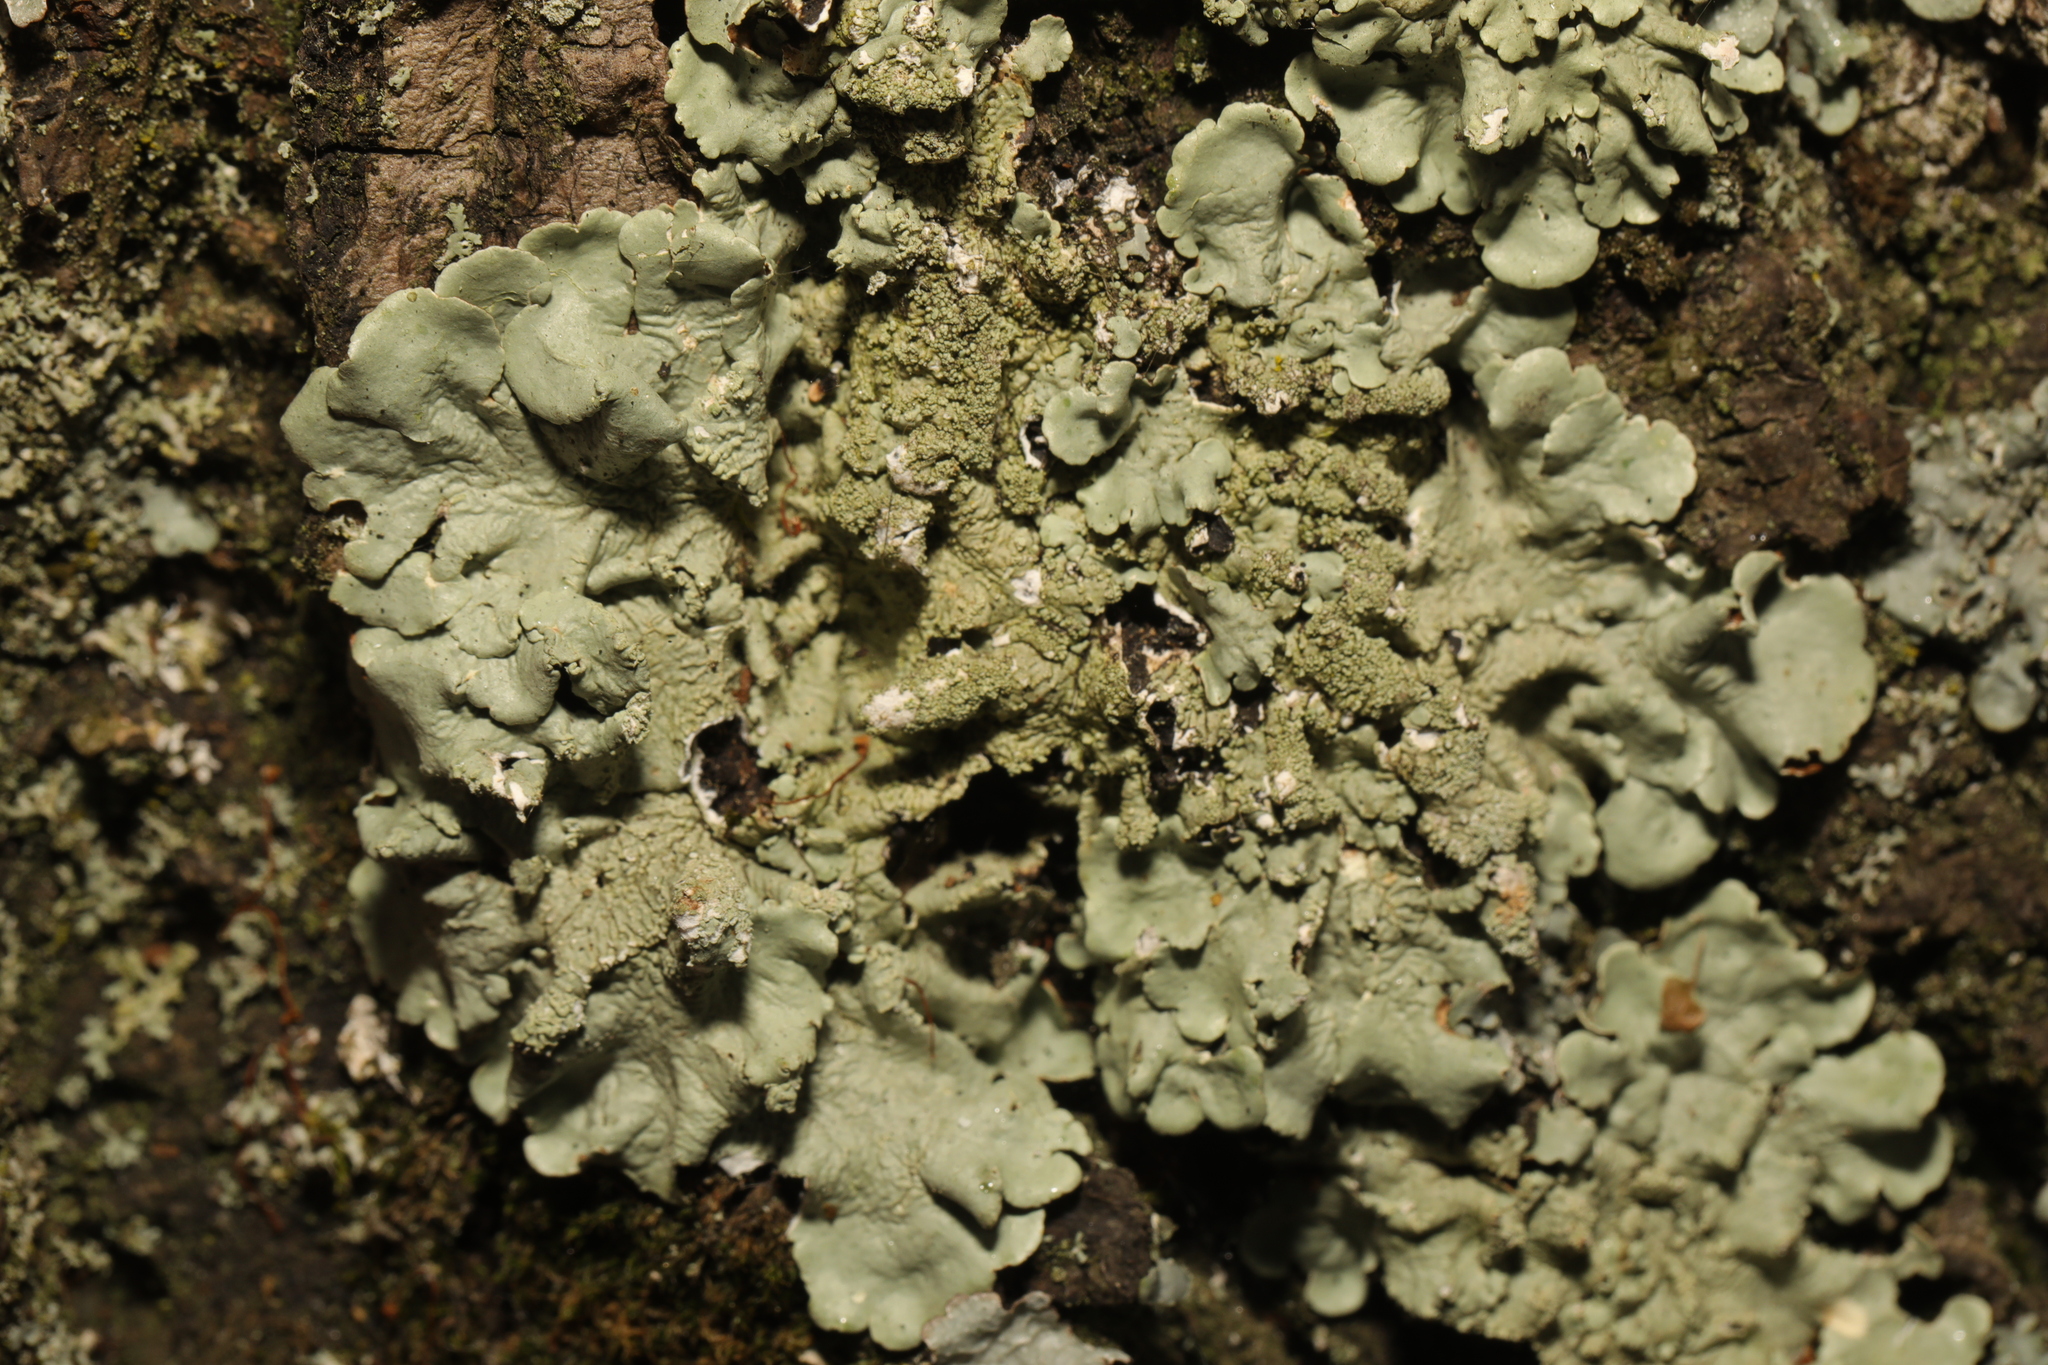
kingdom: Fungi
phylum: Ascomycota
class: Lecanoromycetes
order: Lecanorales
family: Parmeliaceae
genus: Flavoparmelia
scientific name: Flavoparmelia caperata
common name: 40-mile per hour lichen
